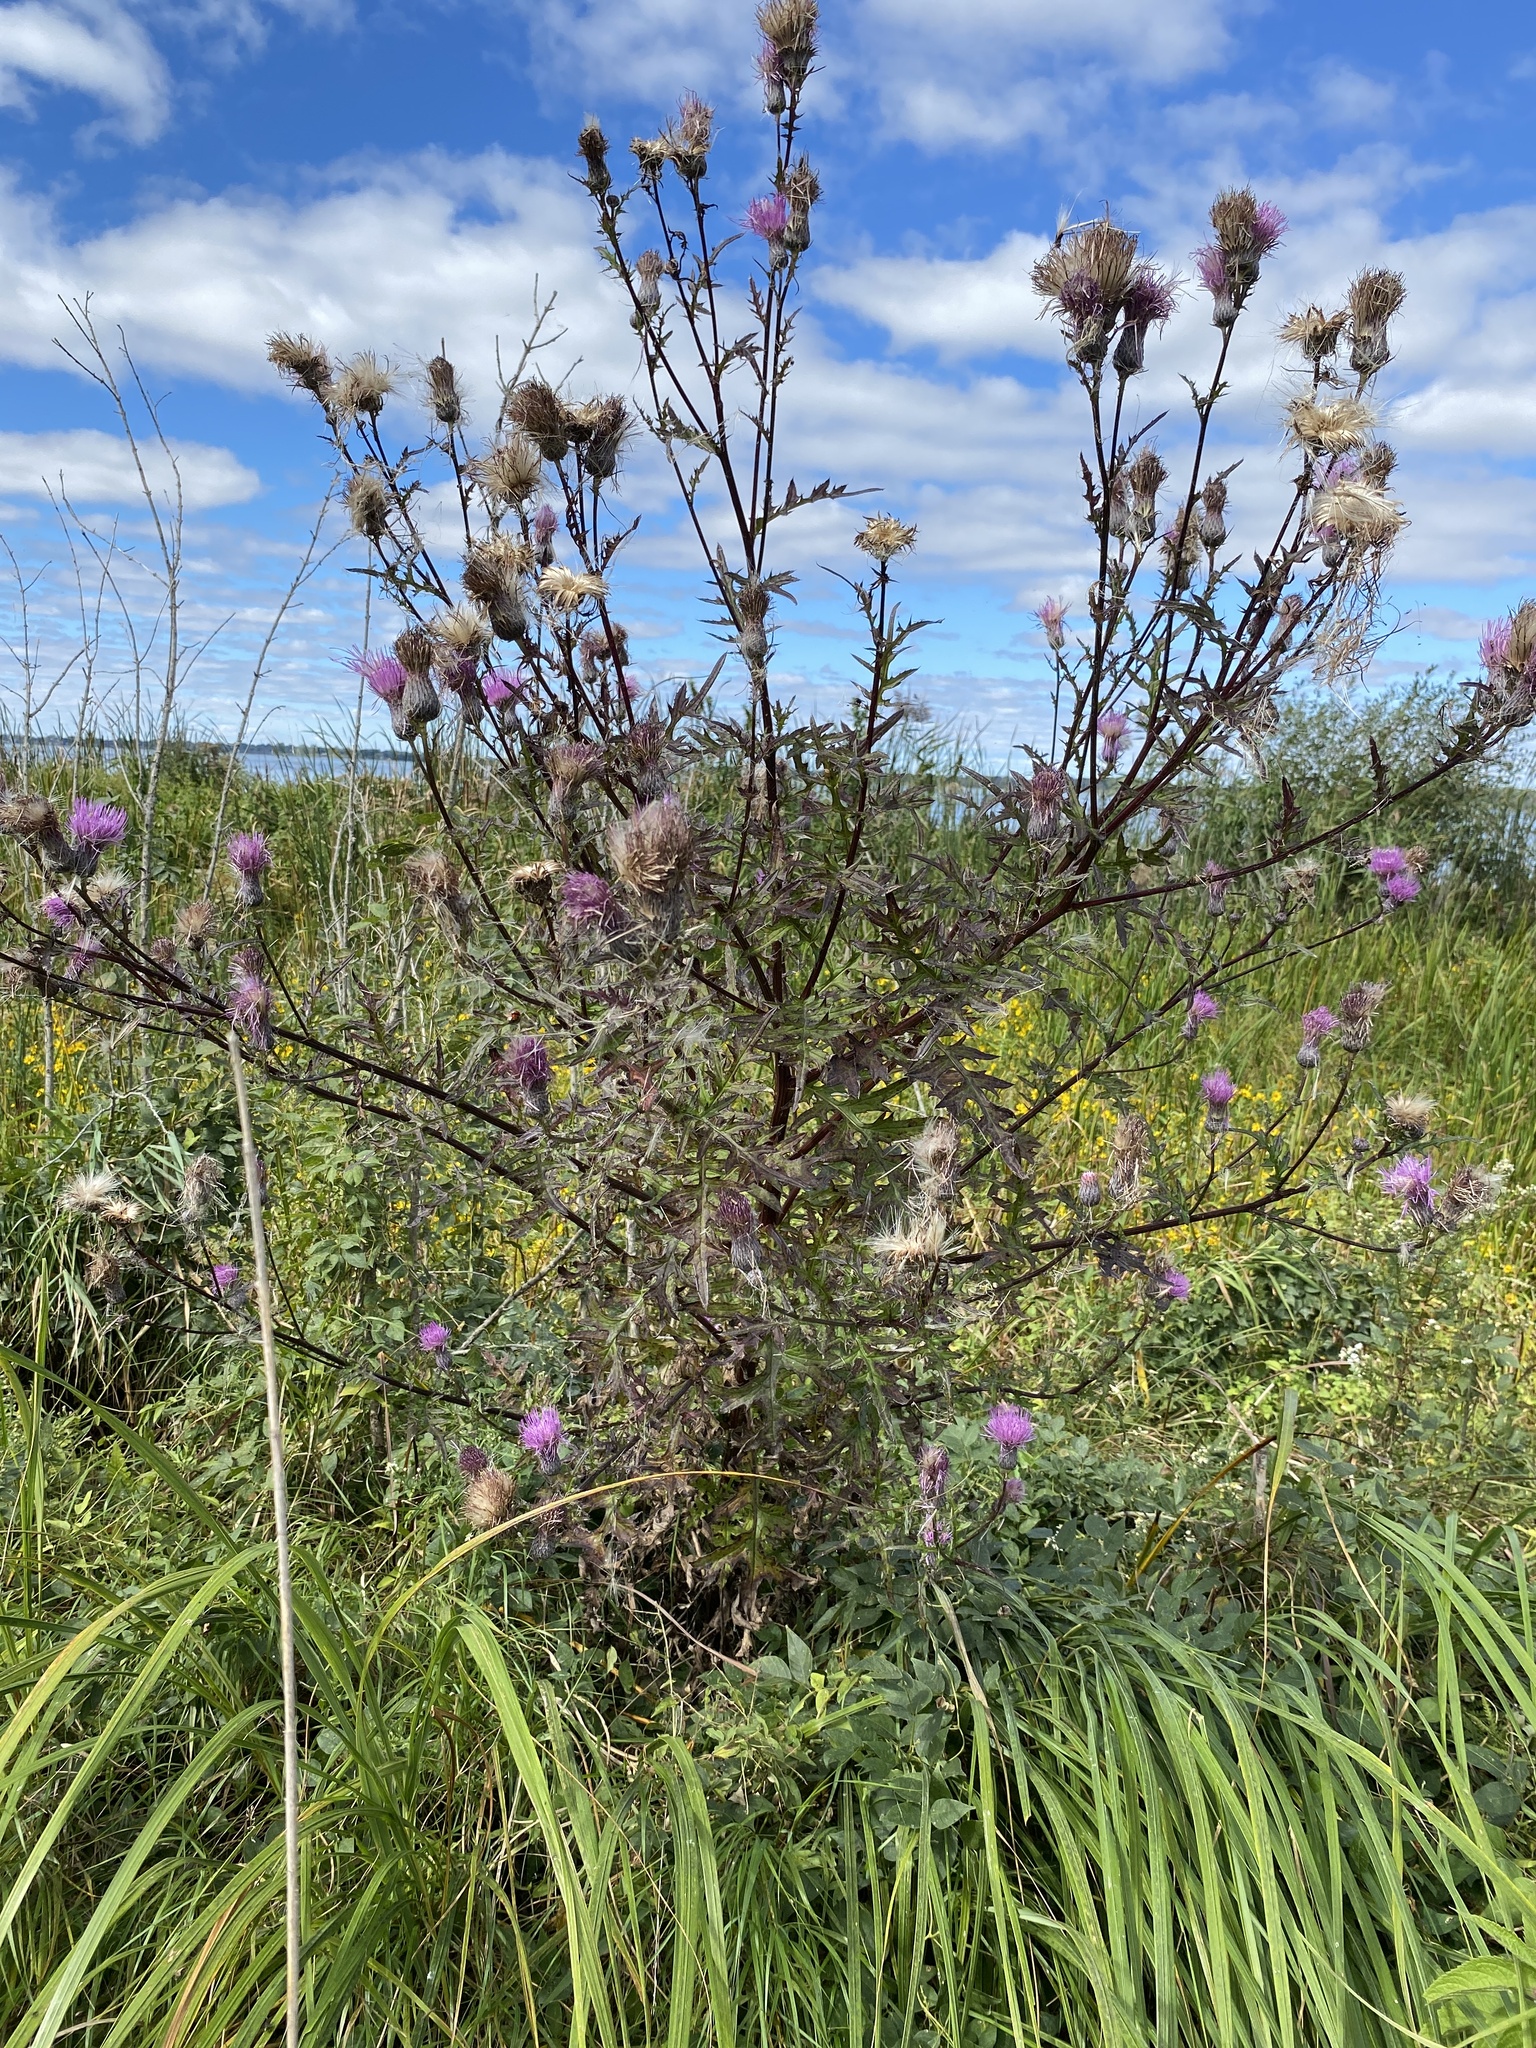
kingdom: Plantae
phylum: Tracheophyta
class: Magnoliopsida
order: Asterales
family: Asteraceae
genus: Cirsium
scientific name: Cirsium muticum
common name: Dunce-nettle
